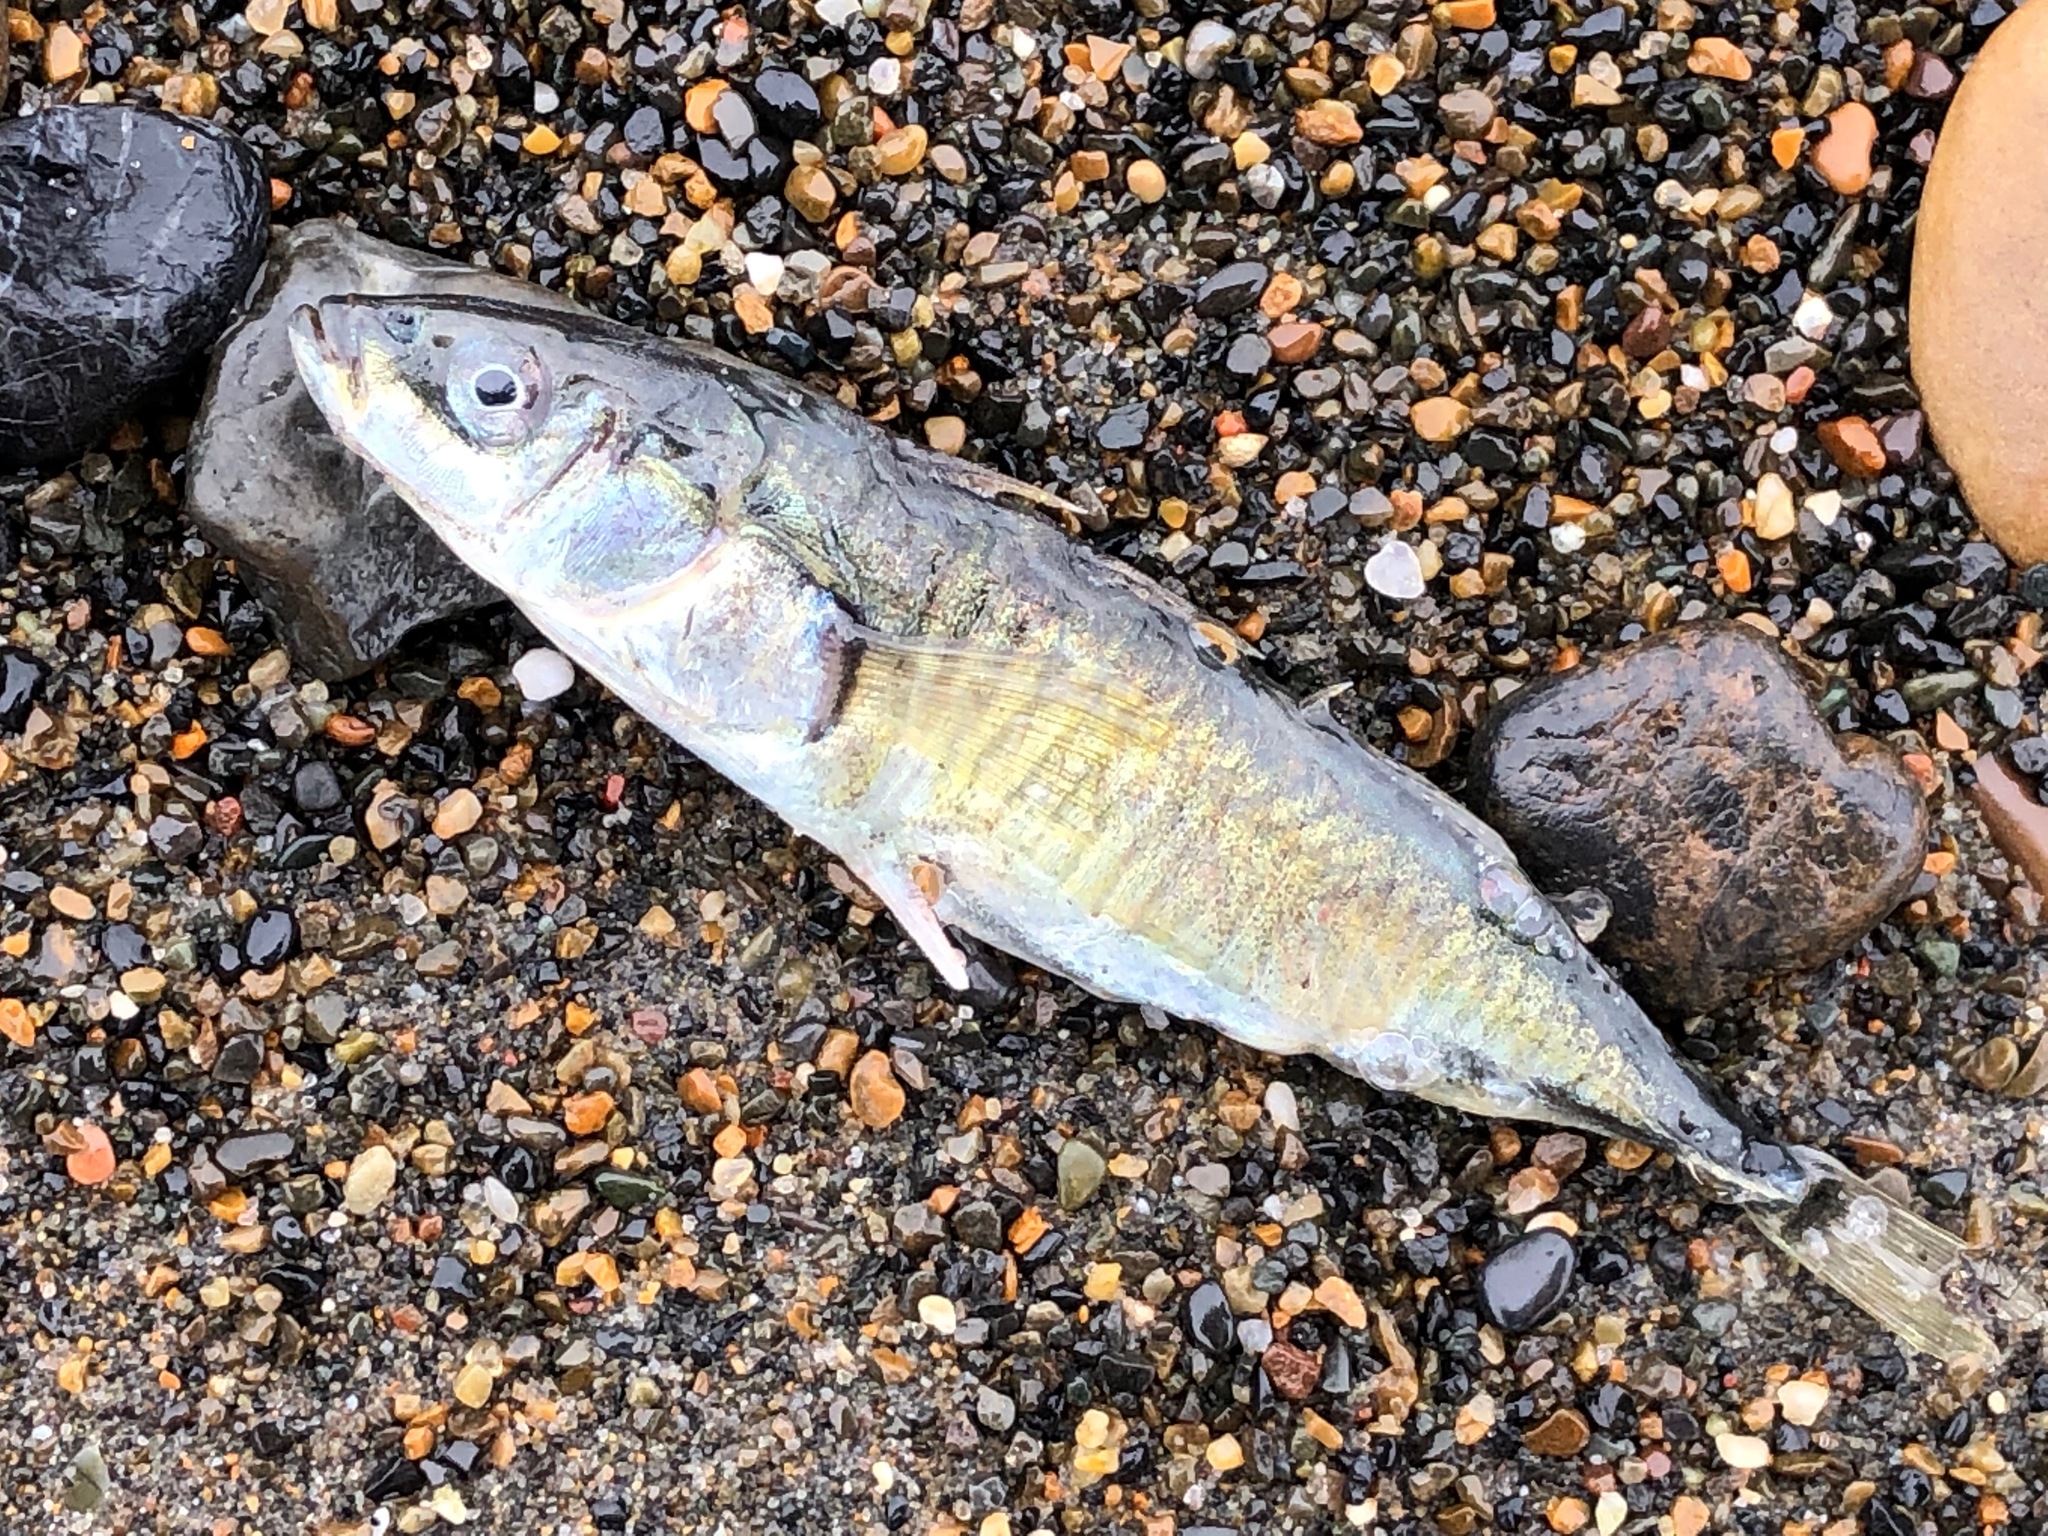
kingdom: Animalia
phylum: Chordata
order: Gasterosteiformes
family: Gasterosteidae
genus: Gasterosteus
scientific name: Gasterosteus aculeatus
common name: Three-spined stickleback
